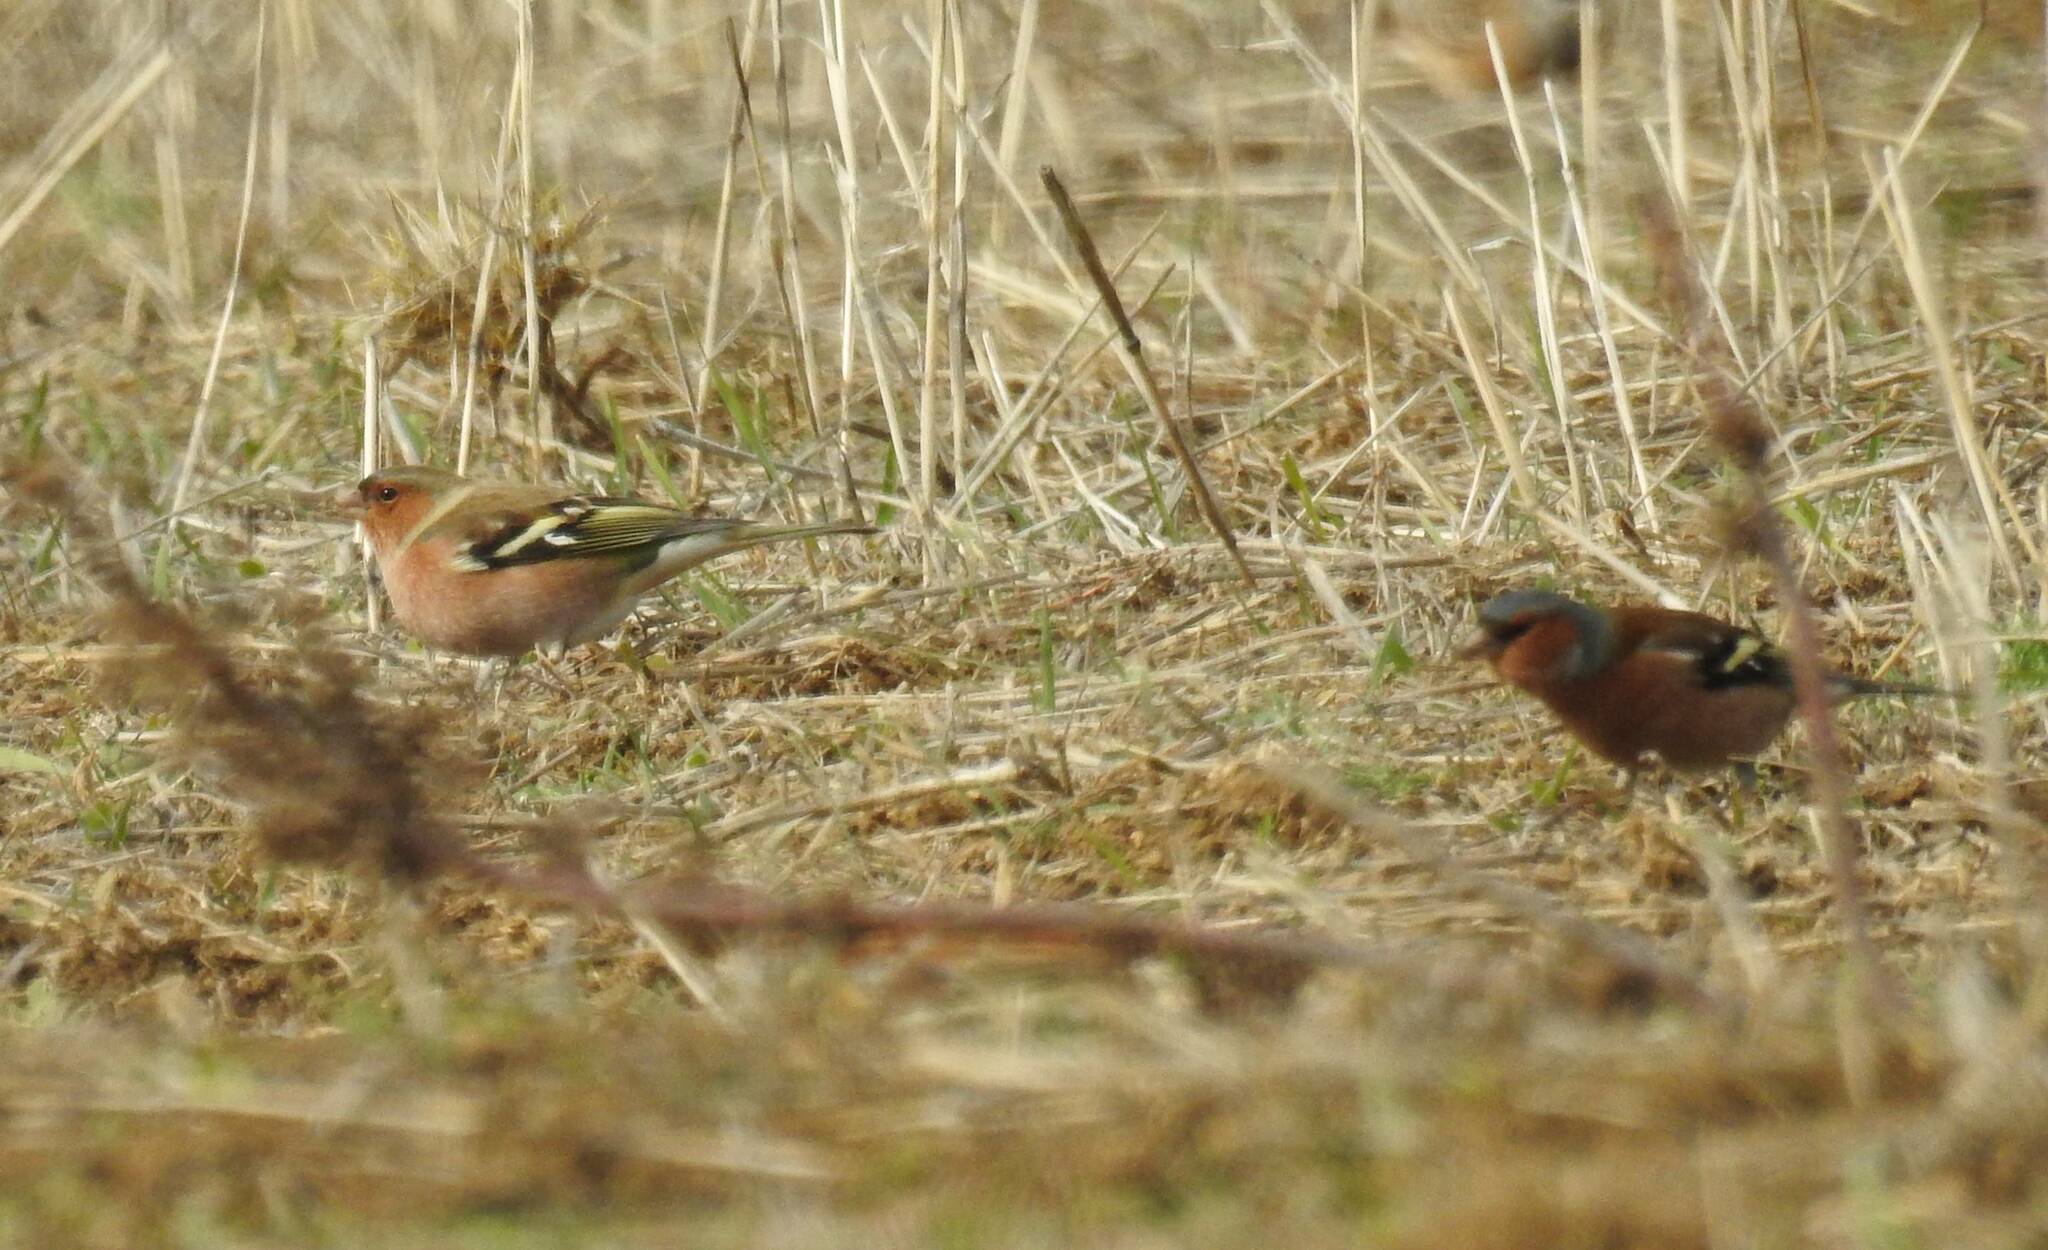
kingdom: Animalia
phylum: Chordata
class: Aves
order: Passeriformes
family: Fringillidae
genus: Fringilla
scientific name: Fringilla coelebs
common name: Common chaffinch
